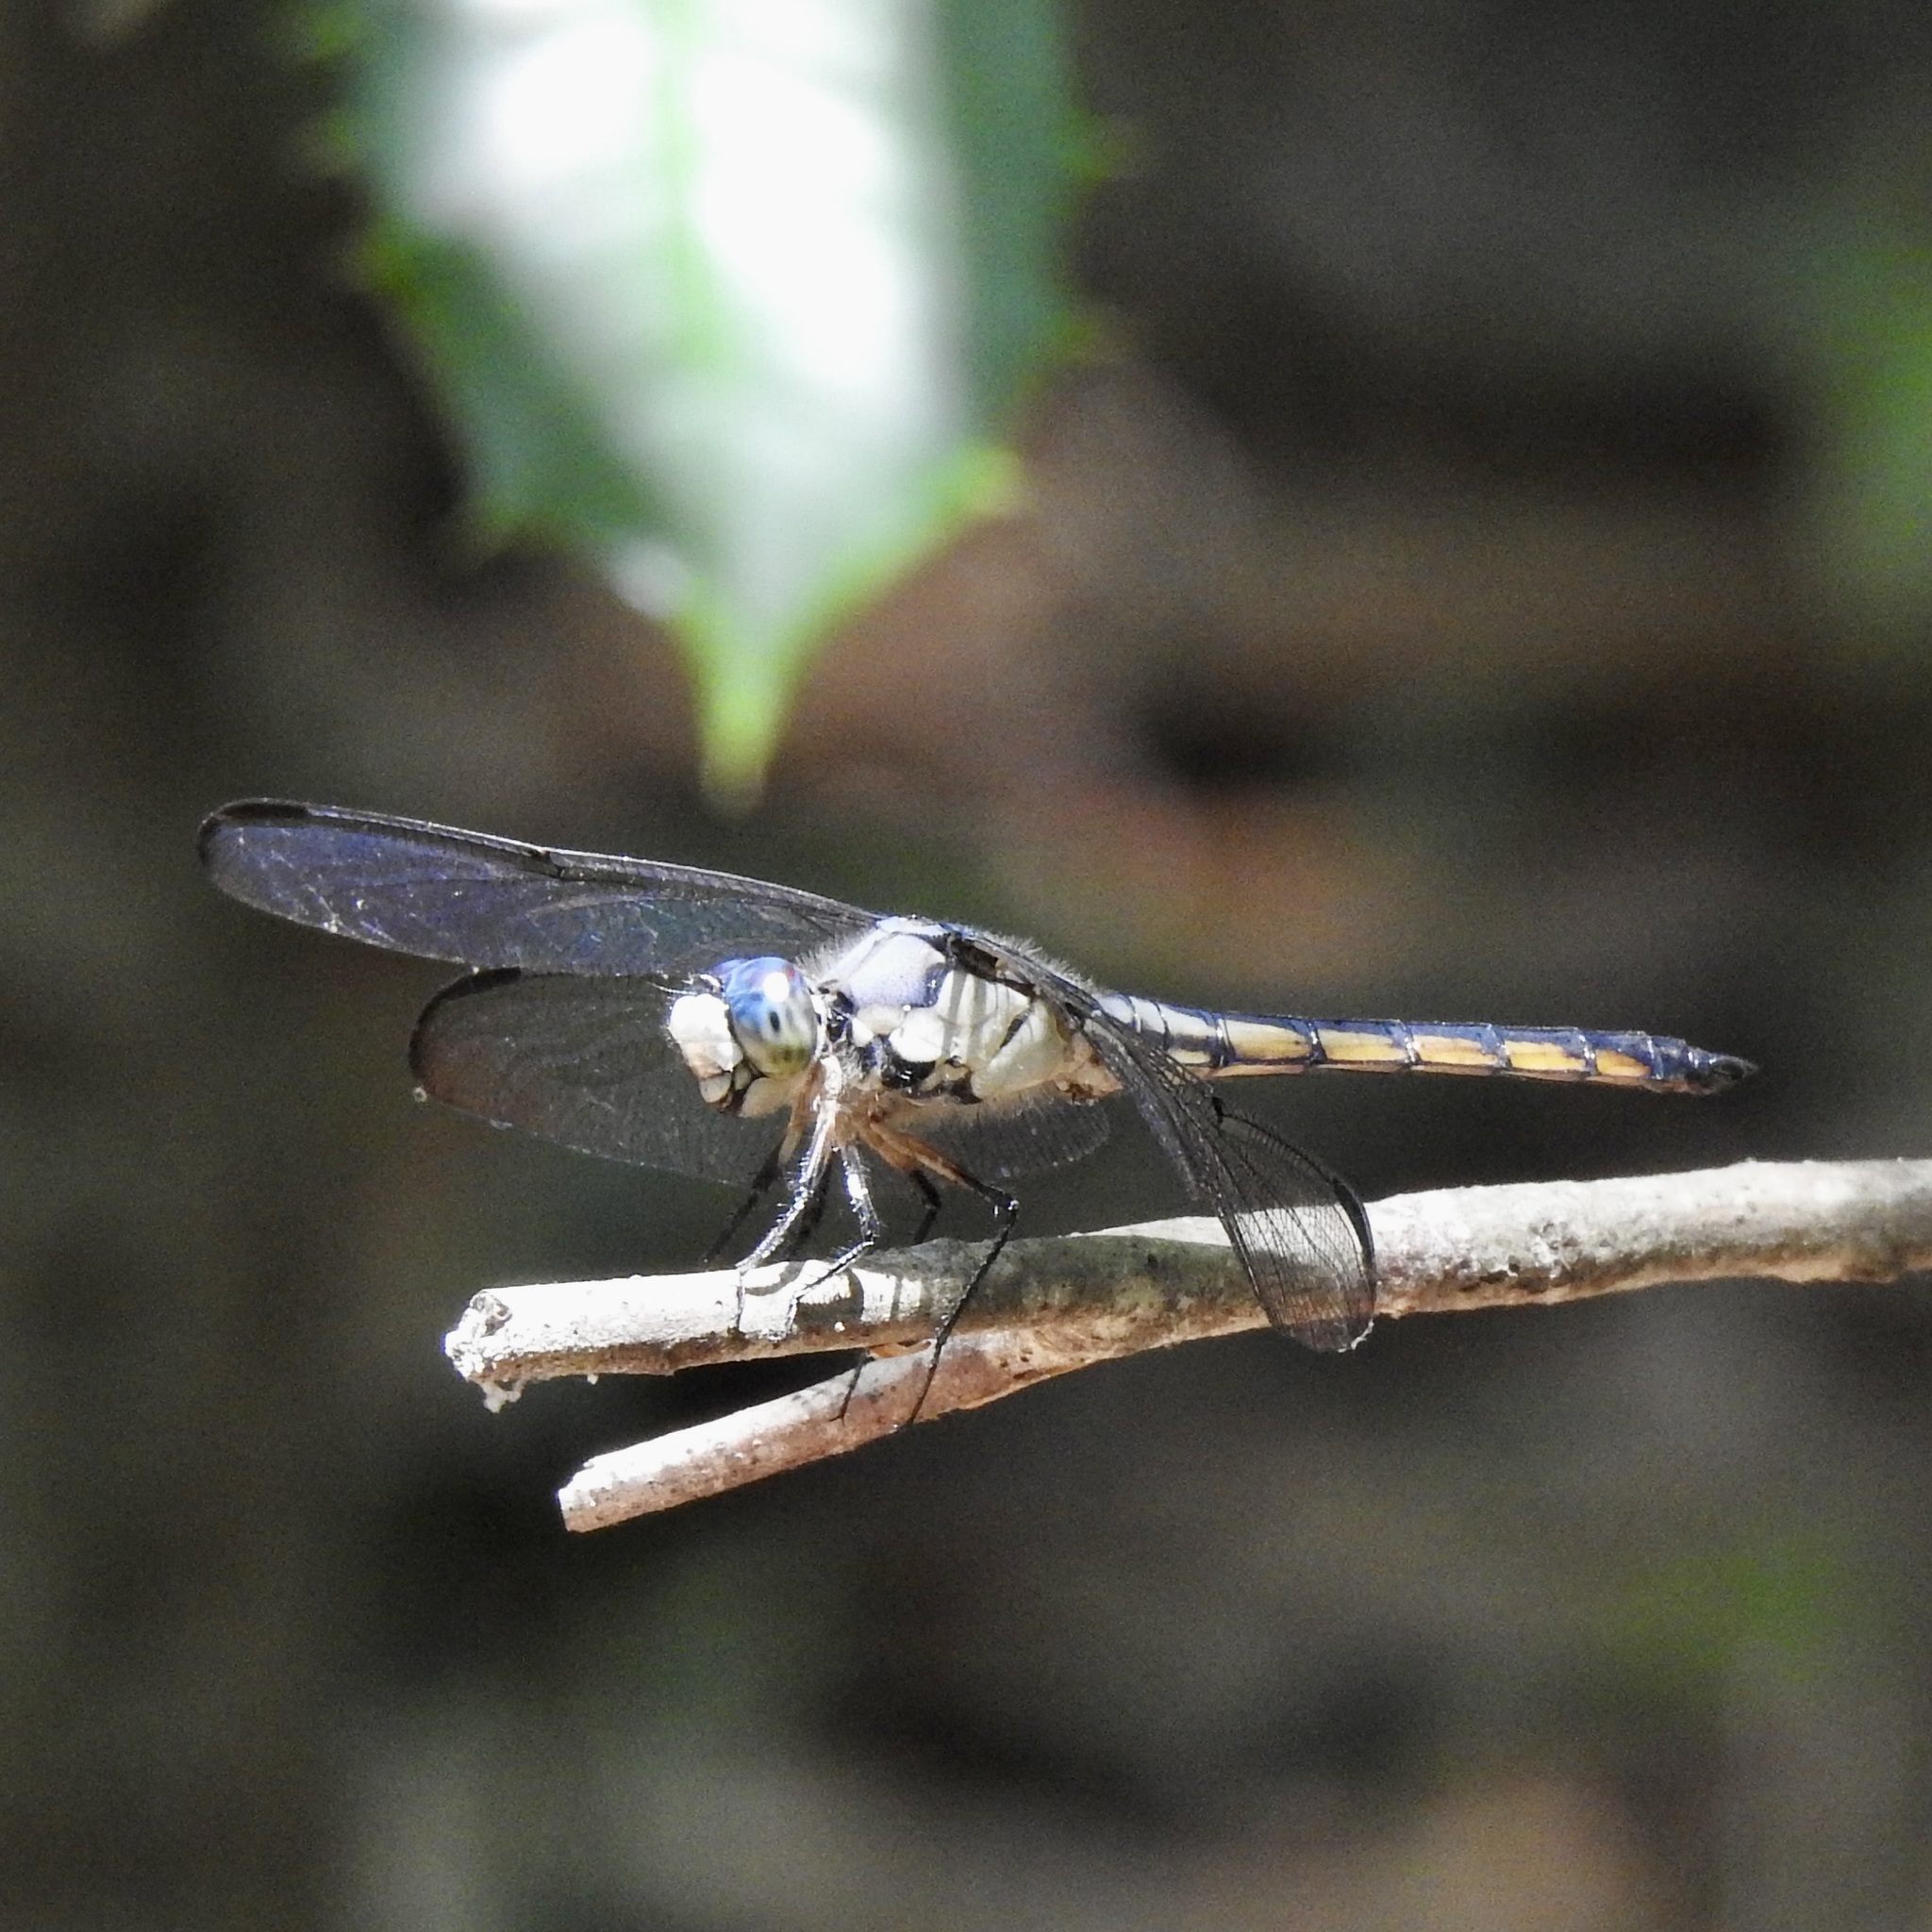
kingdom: Animalia
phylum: Arthropoda
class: Insecta
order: Odonata
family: Libellulidae
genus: Libellula
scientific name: Libellula vibrans
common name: Great blue skimmer
